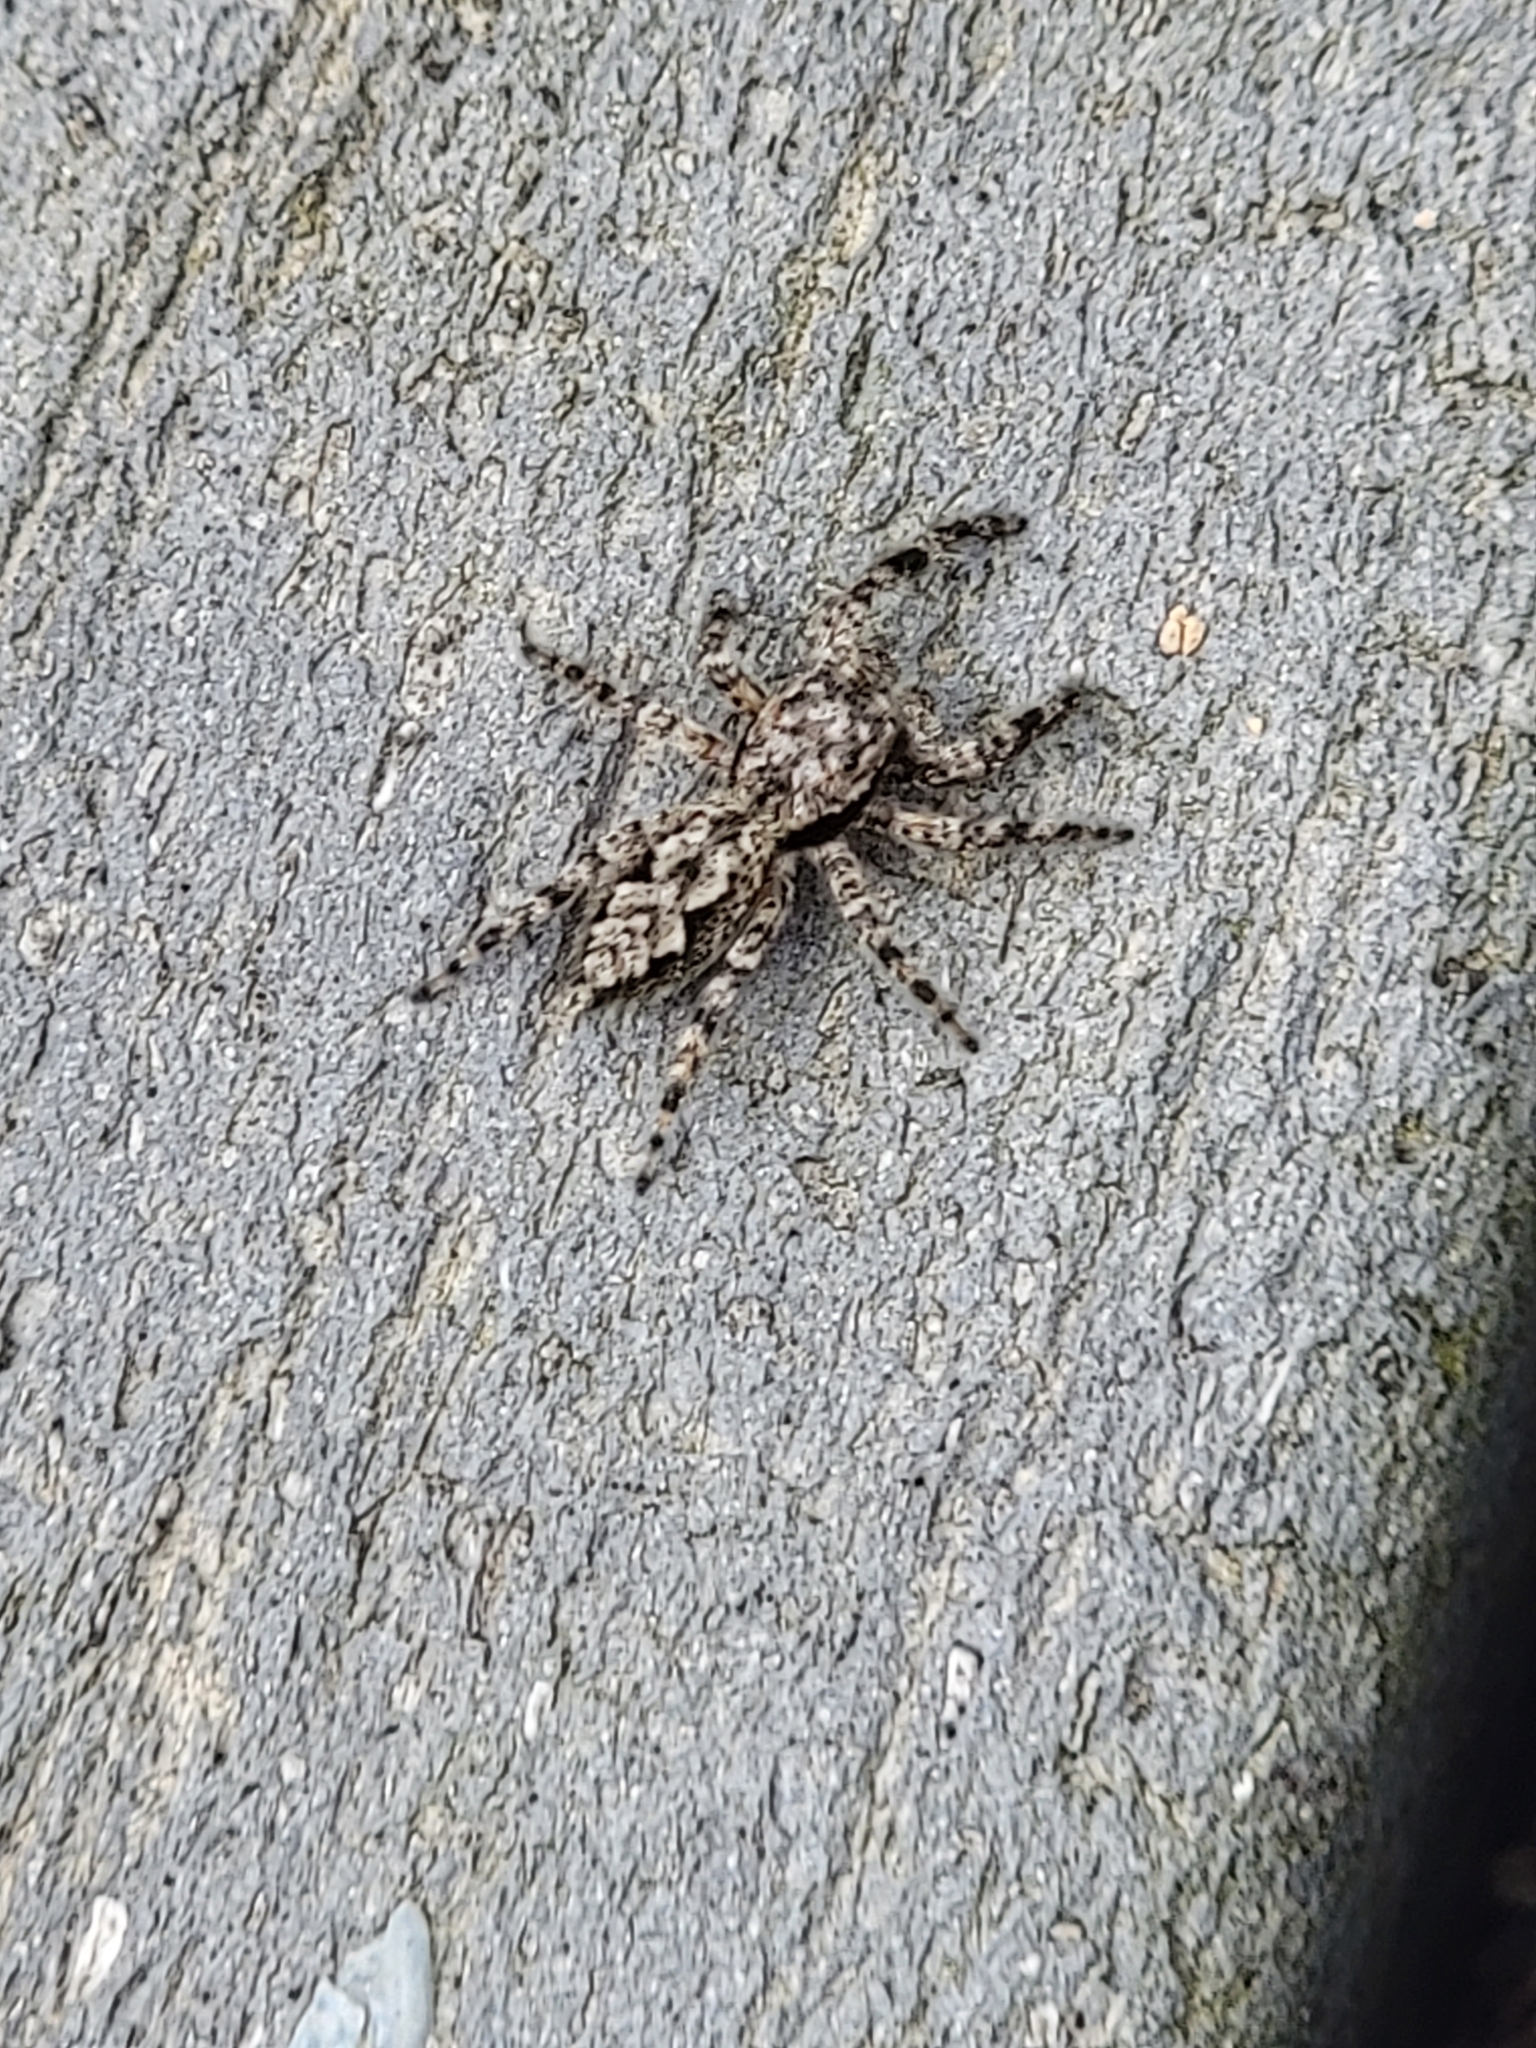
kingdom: Animalia
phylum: Arthropoda
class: Arachnida
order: Araneae
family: Salticidae
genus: Platycryptus
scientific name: Platycryptus undatus
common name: Tan jumping spider
